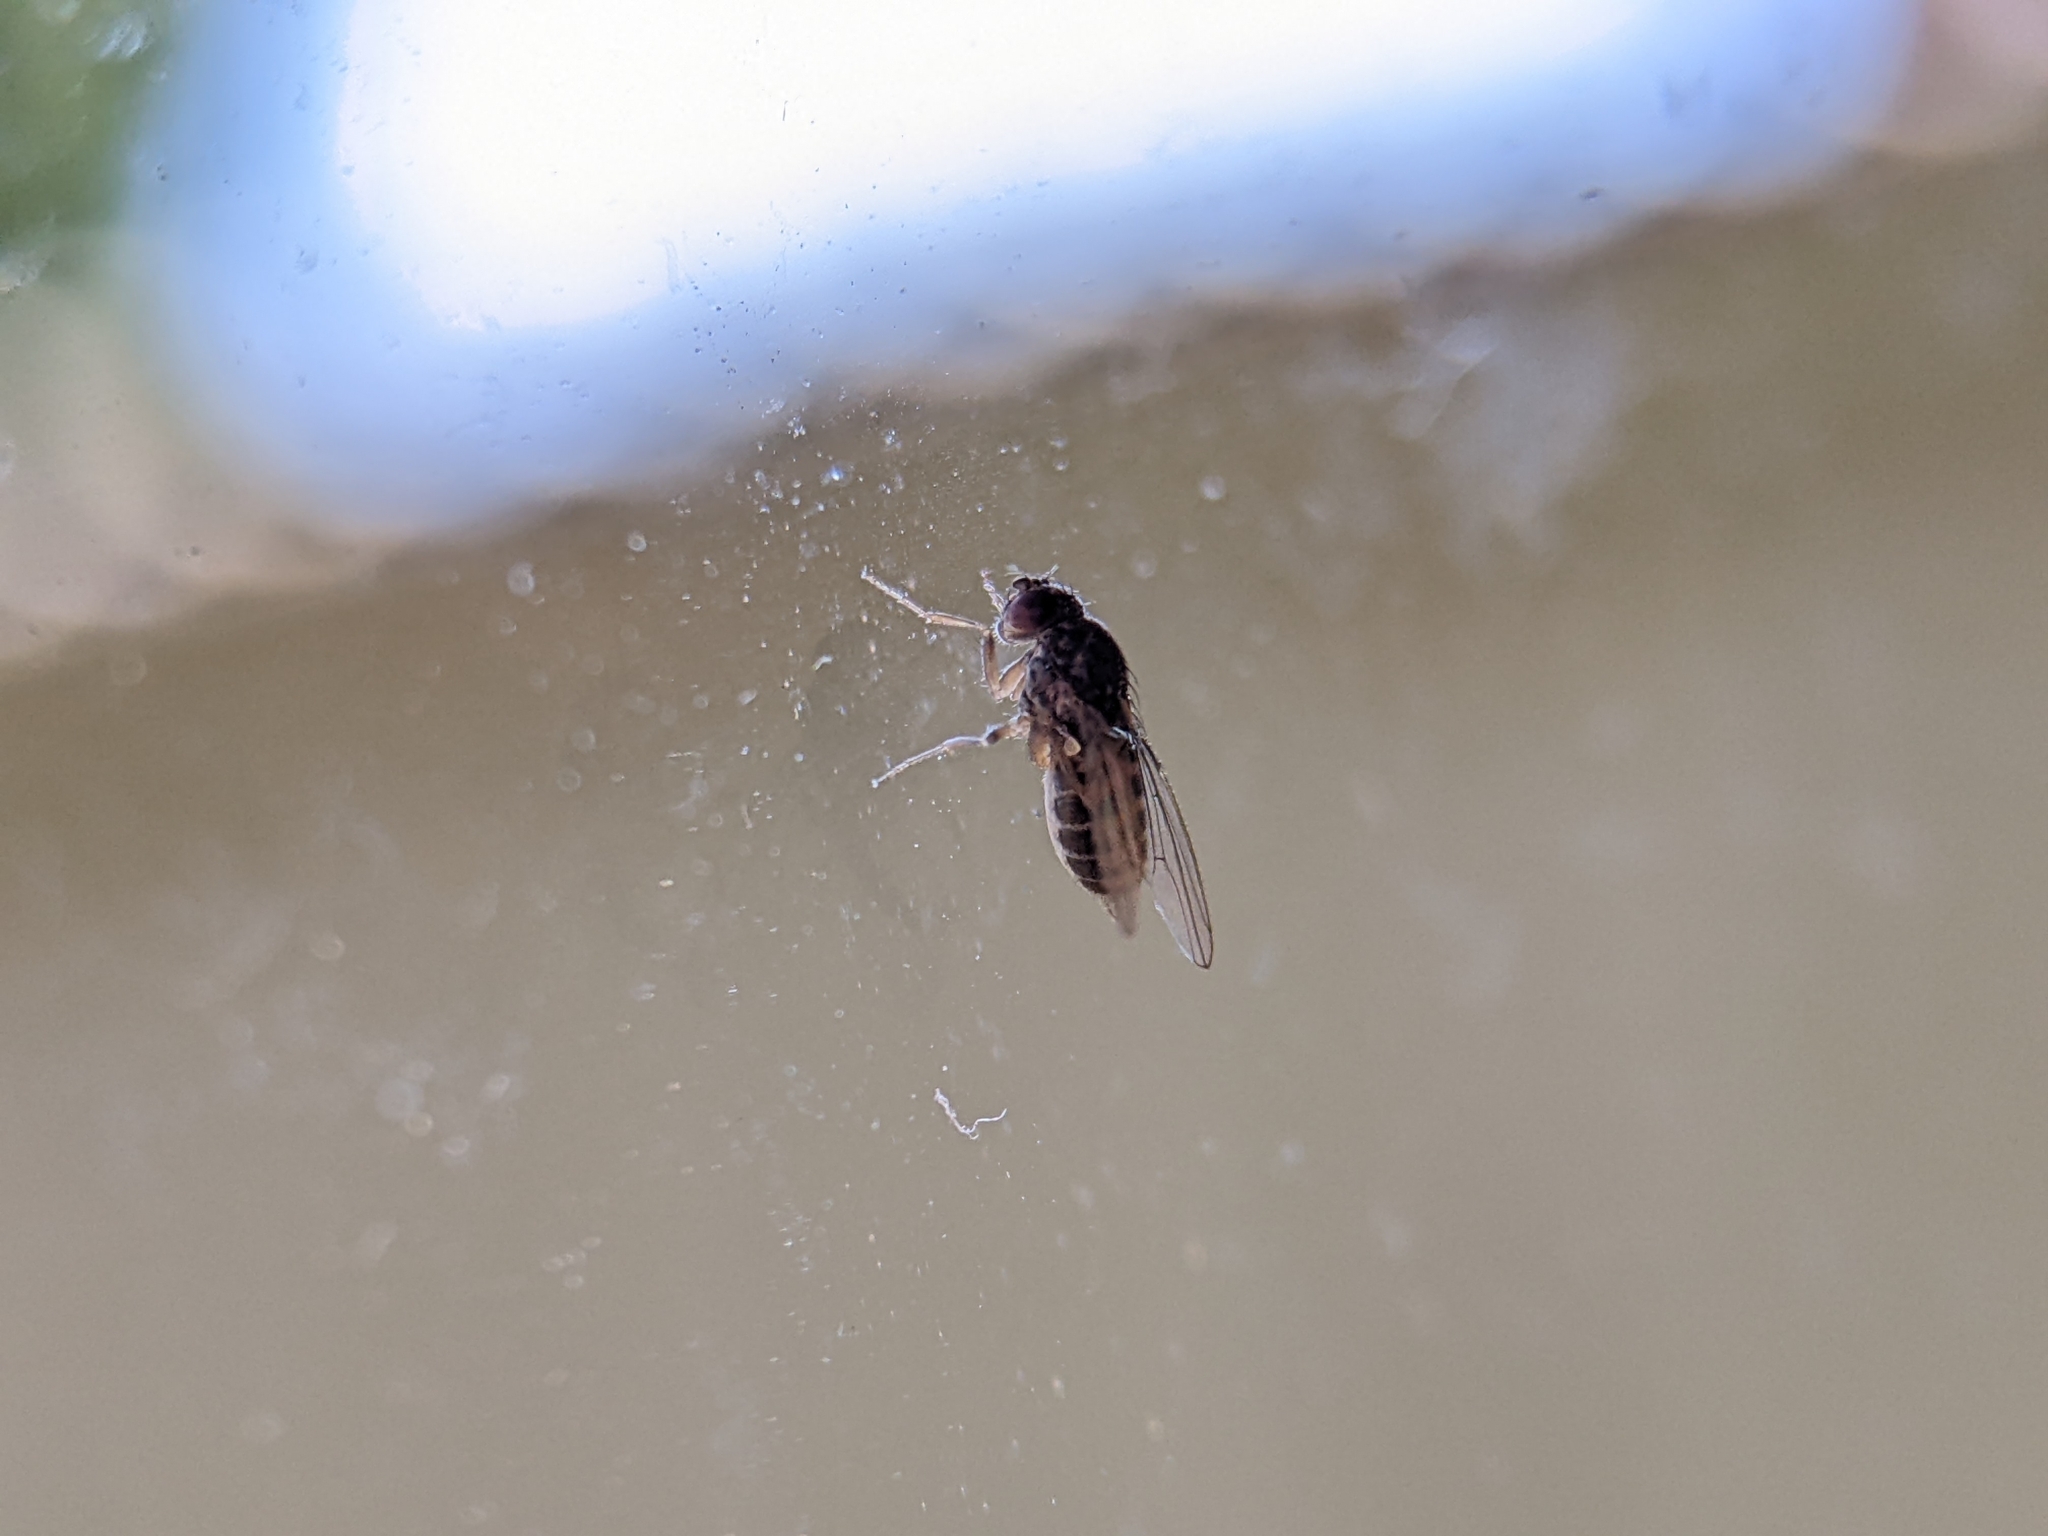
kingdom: Animalia
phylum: Arthropoda
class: Insecta
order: Diptera
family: Drosophilidae
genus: Drosophila
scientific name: Drosophila
